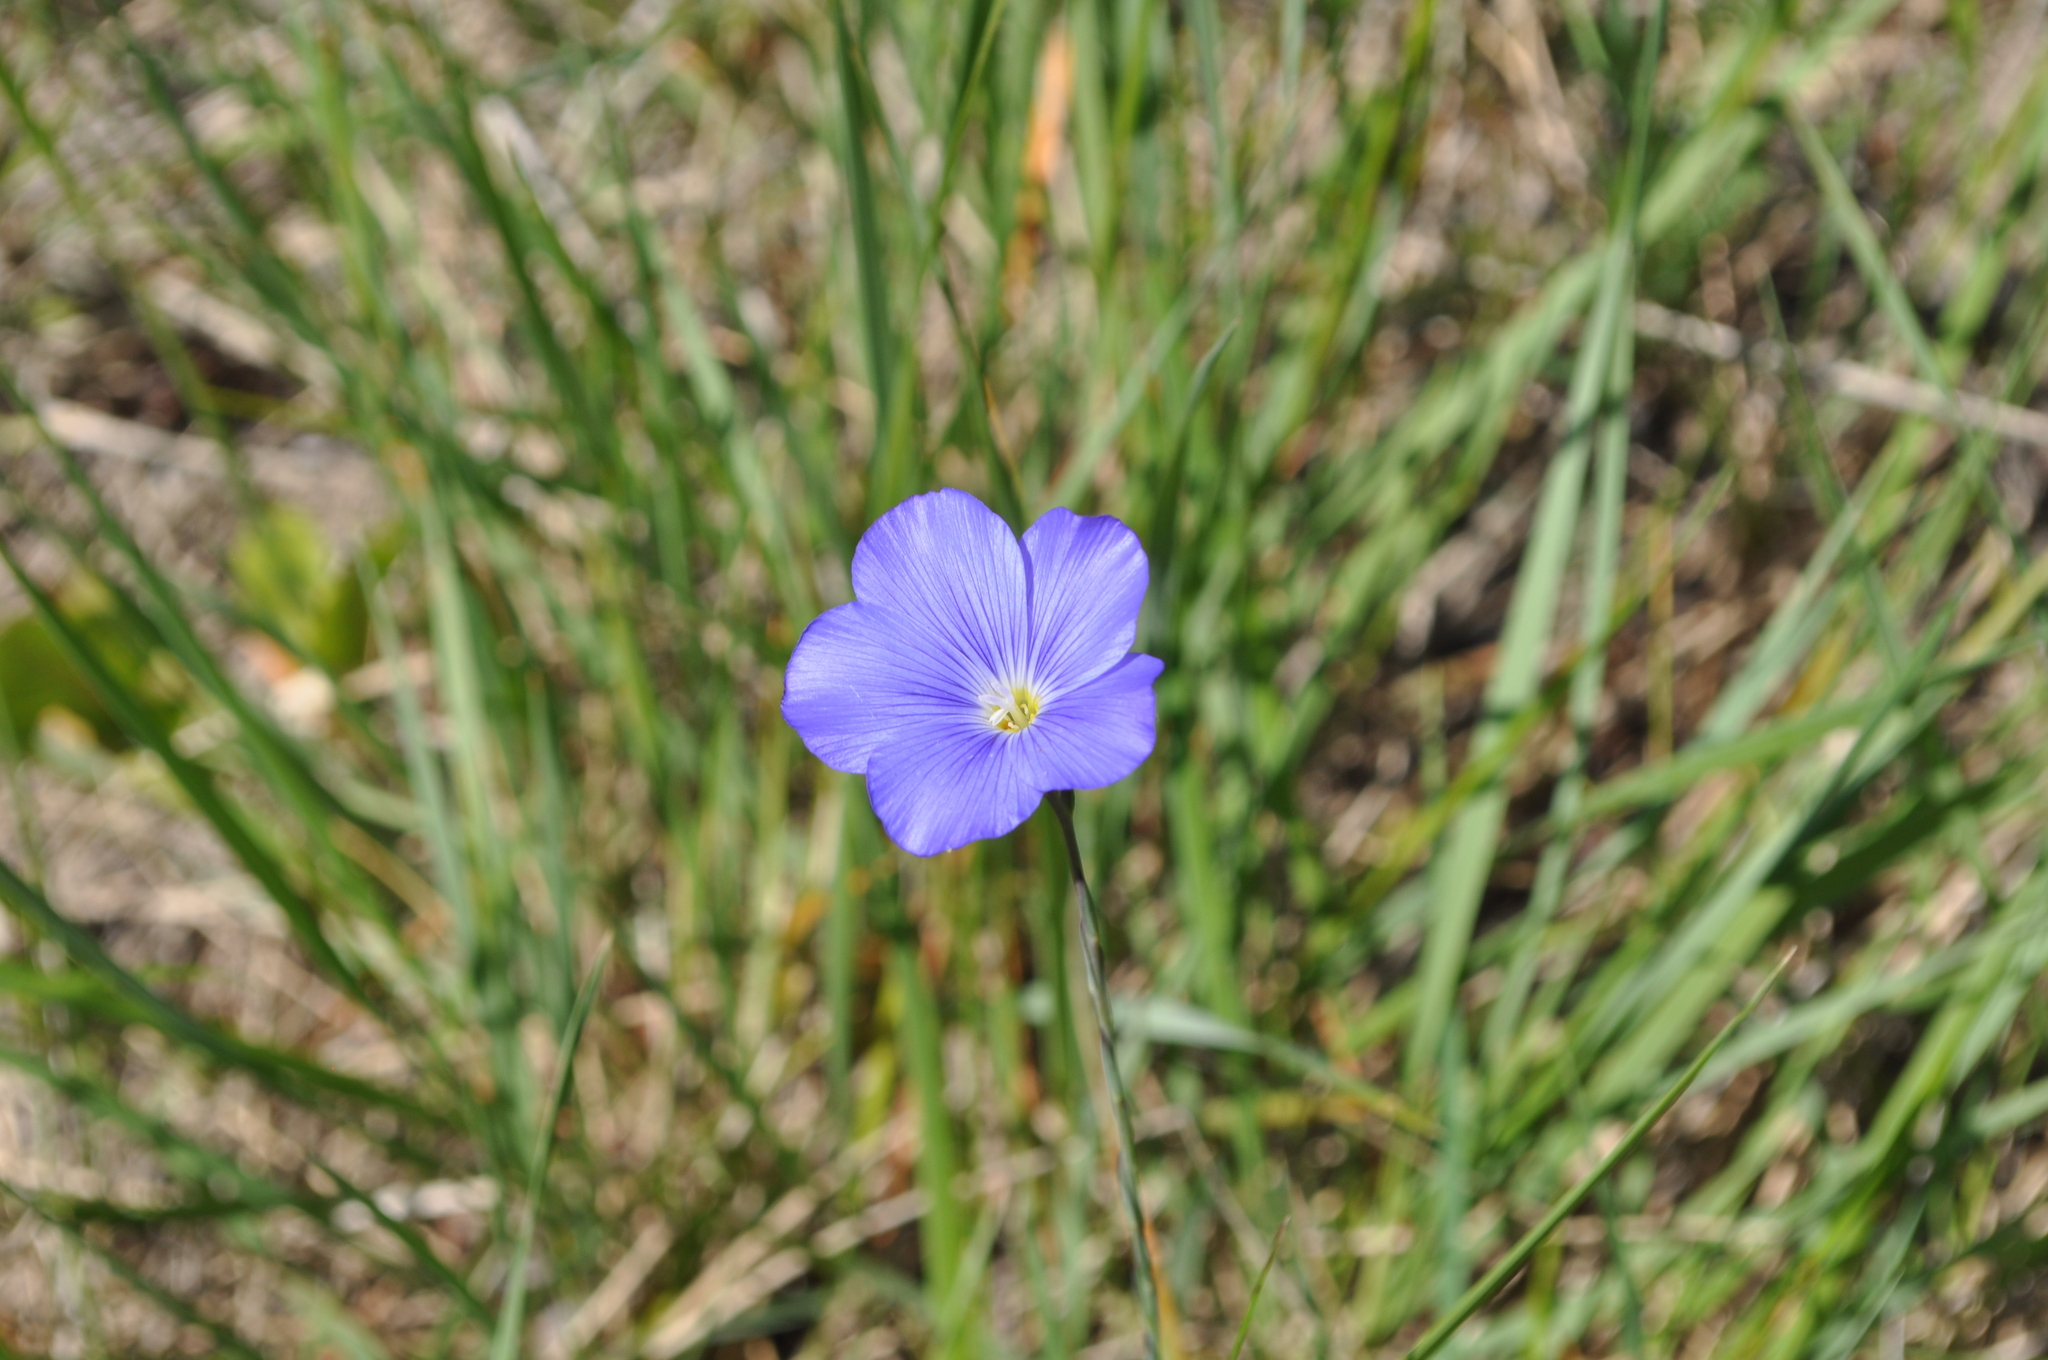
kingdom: Plantae
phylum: Tracheophyta
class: Magnoliopsida
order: Malpighiales
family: Linaceae
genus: Linum
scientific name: Linum narbonense
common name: Flax
